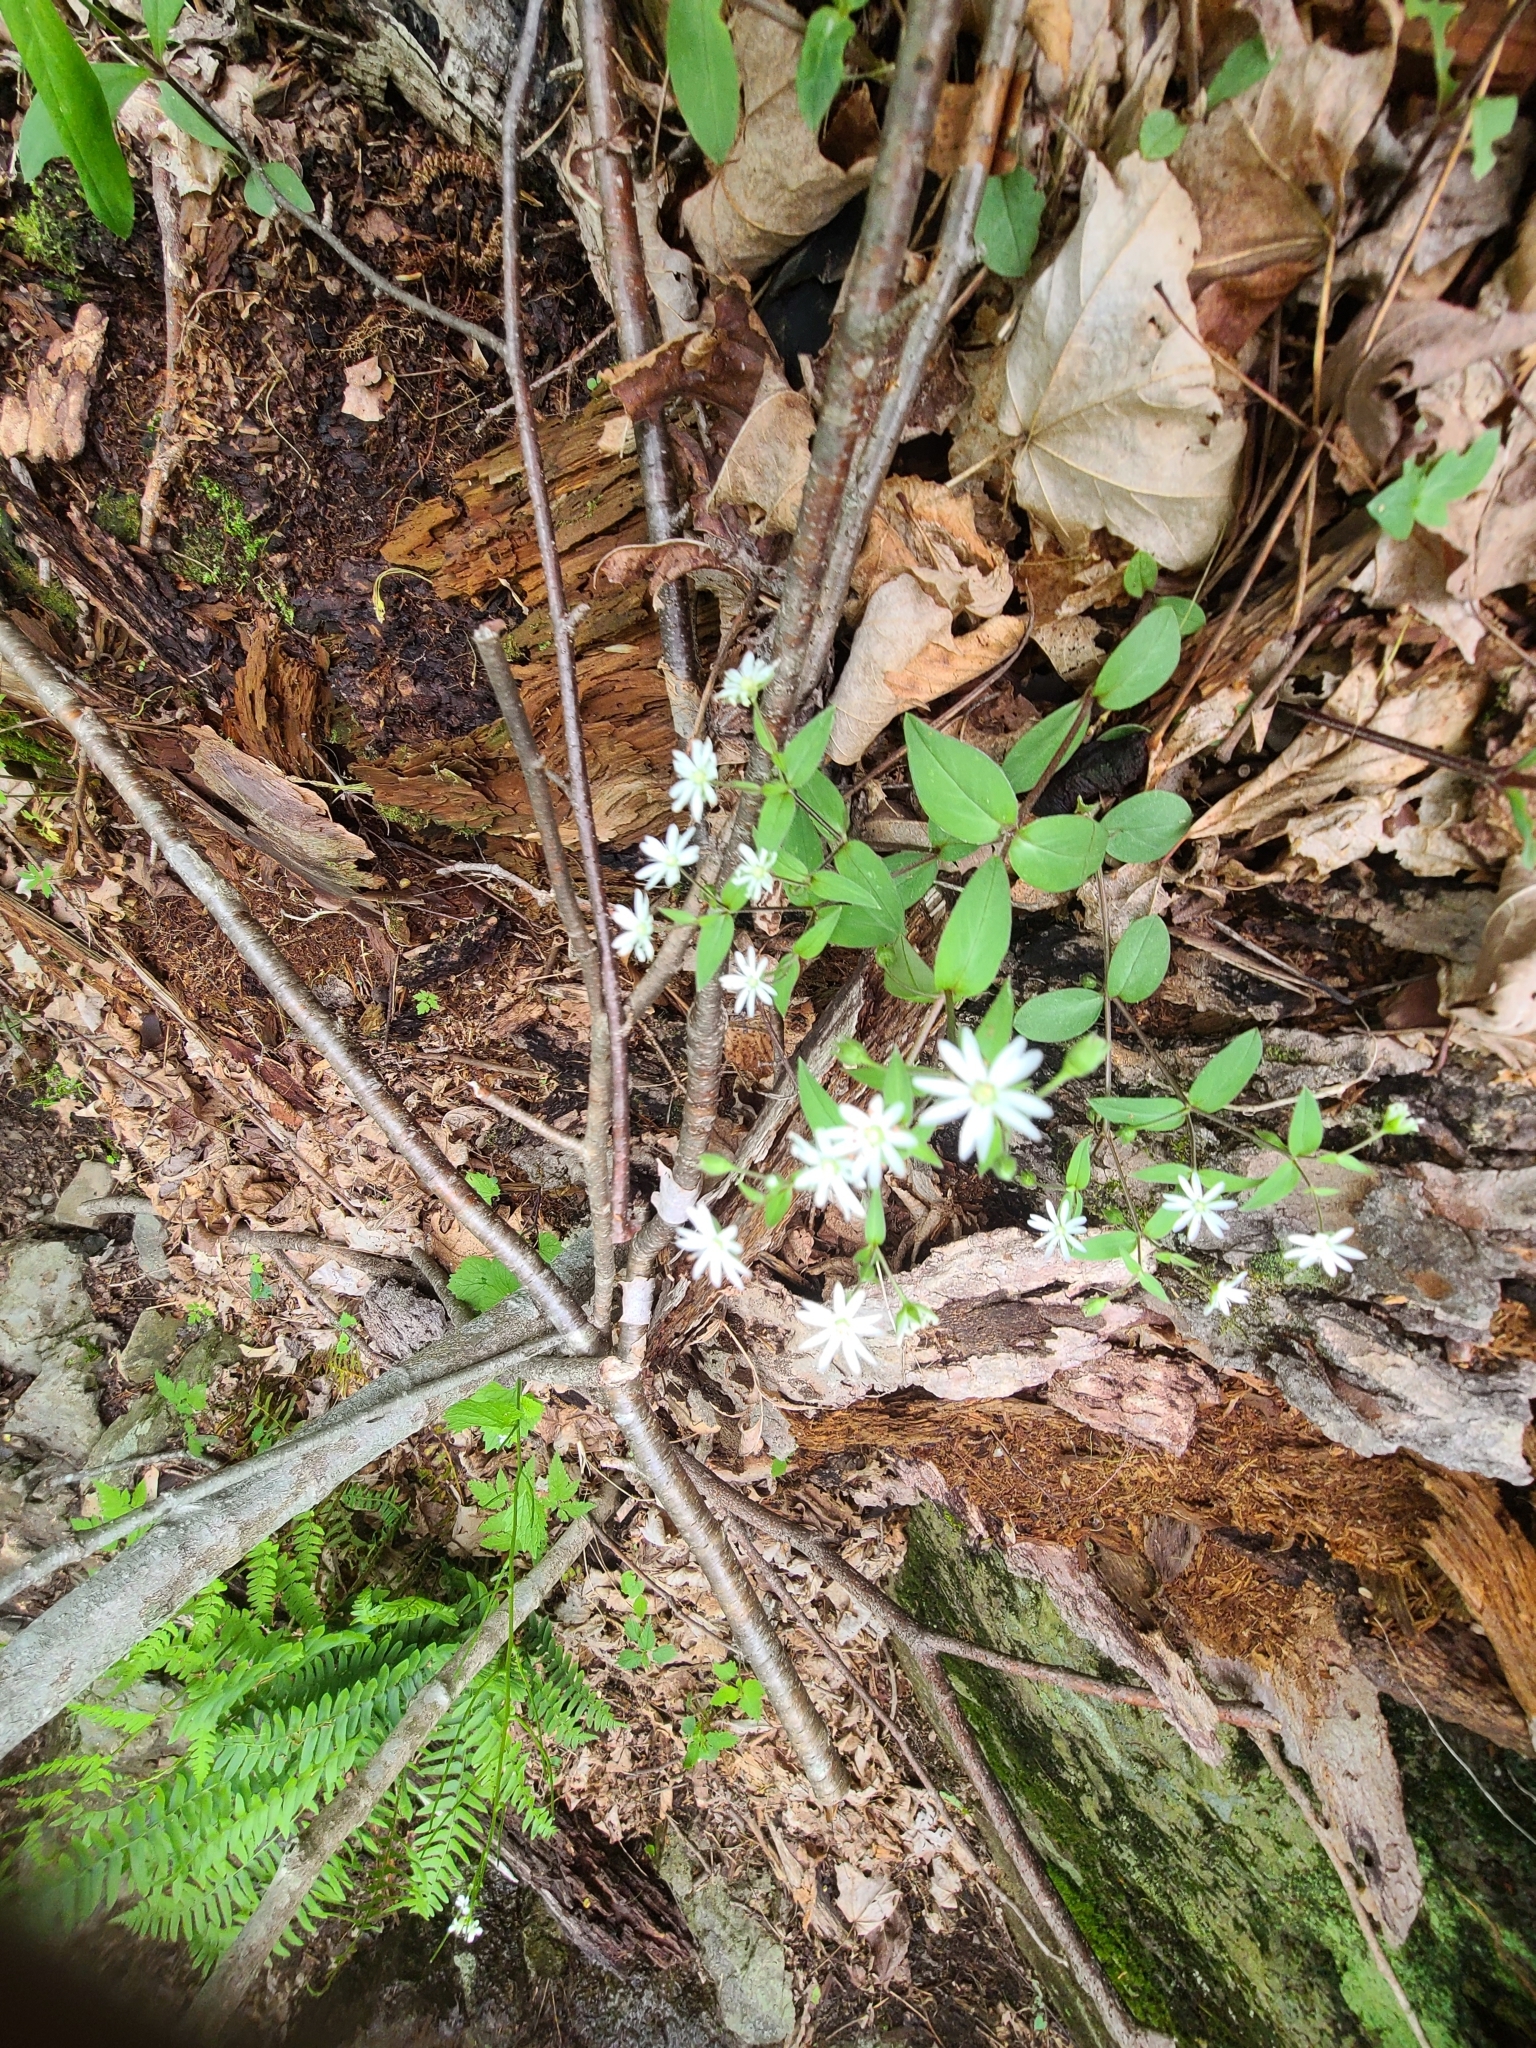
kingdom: Plantae
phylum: Tracheophyta
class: Magnoliopsida
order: Caryophyllales
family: Caryophyllaceae
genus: Stellaria
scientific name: Stellaria pubera
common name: Star chickweed
